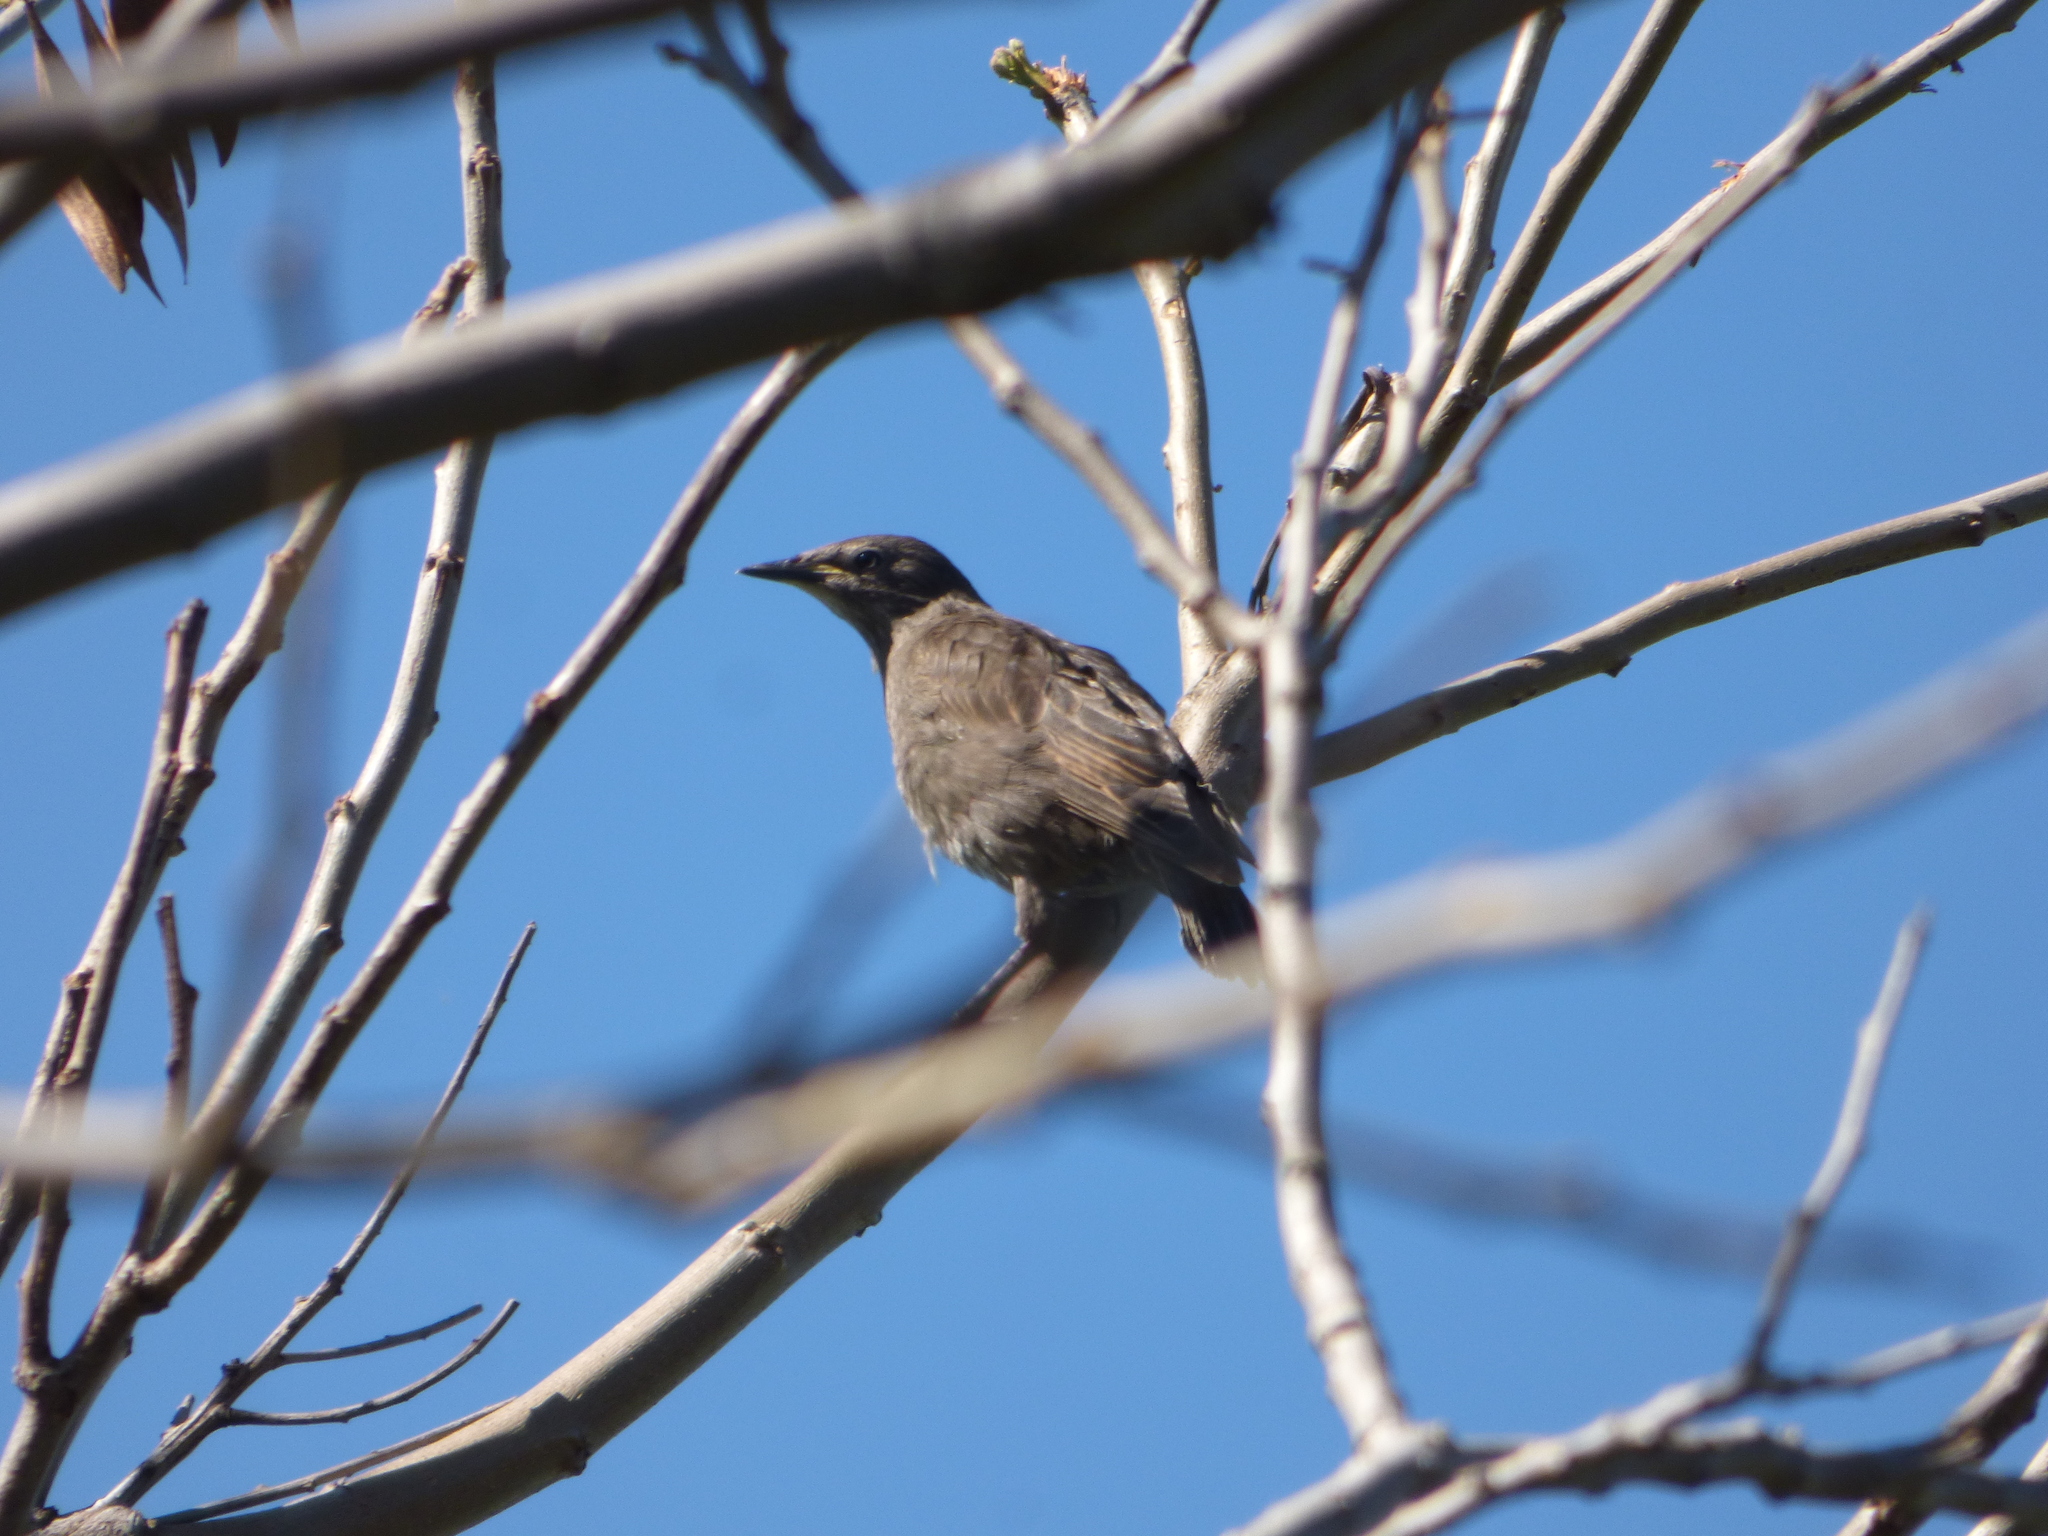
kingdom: Animalia
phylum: Chordata
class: Aves
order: Passeriformes
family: Sturnidae
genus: Sturnus
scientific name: Sturnus vulgaris
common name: Common starling
